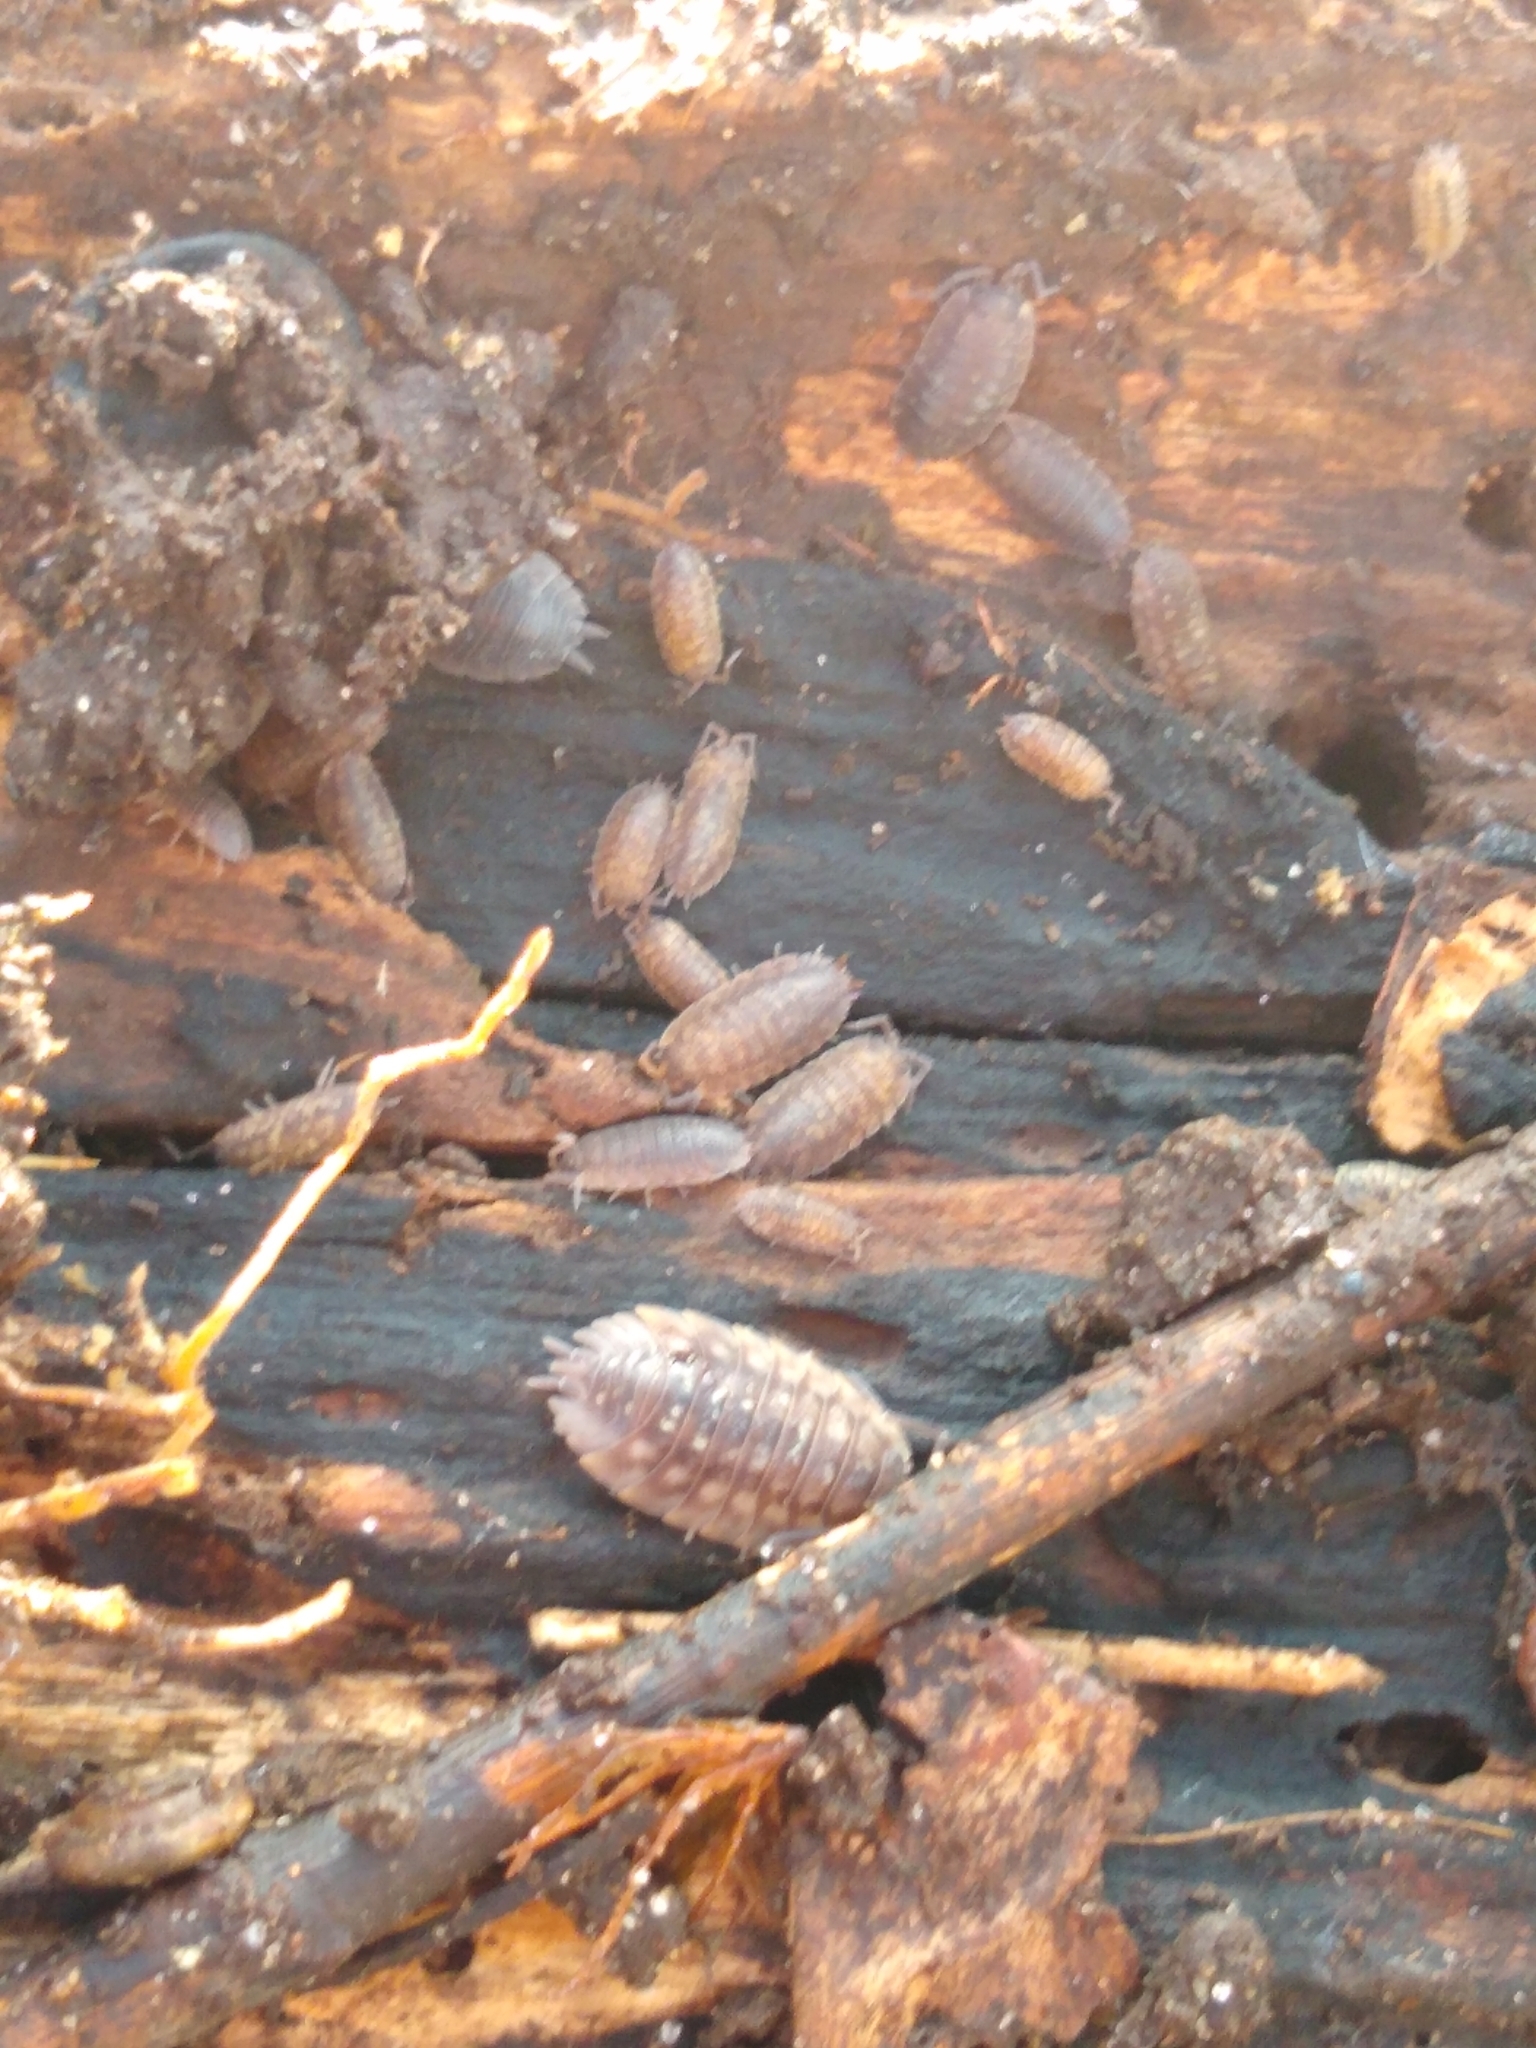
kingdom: Animalia
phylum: Arthropoda
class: Malacostraca
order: Isopoda
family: Oniscidae
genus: Oniscus
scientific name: Oniscus asellus
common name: Common shiny woodlouse
